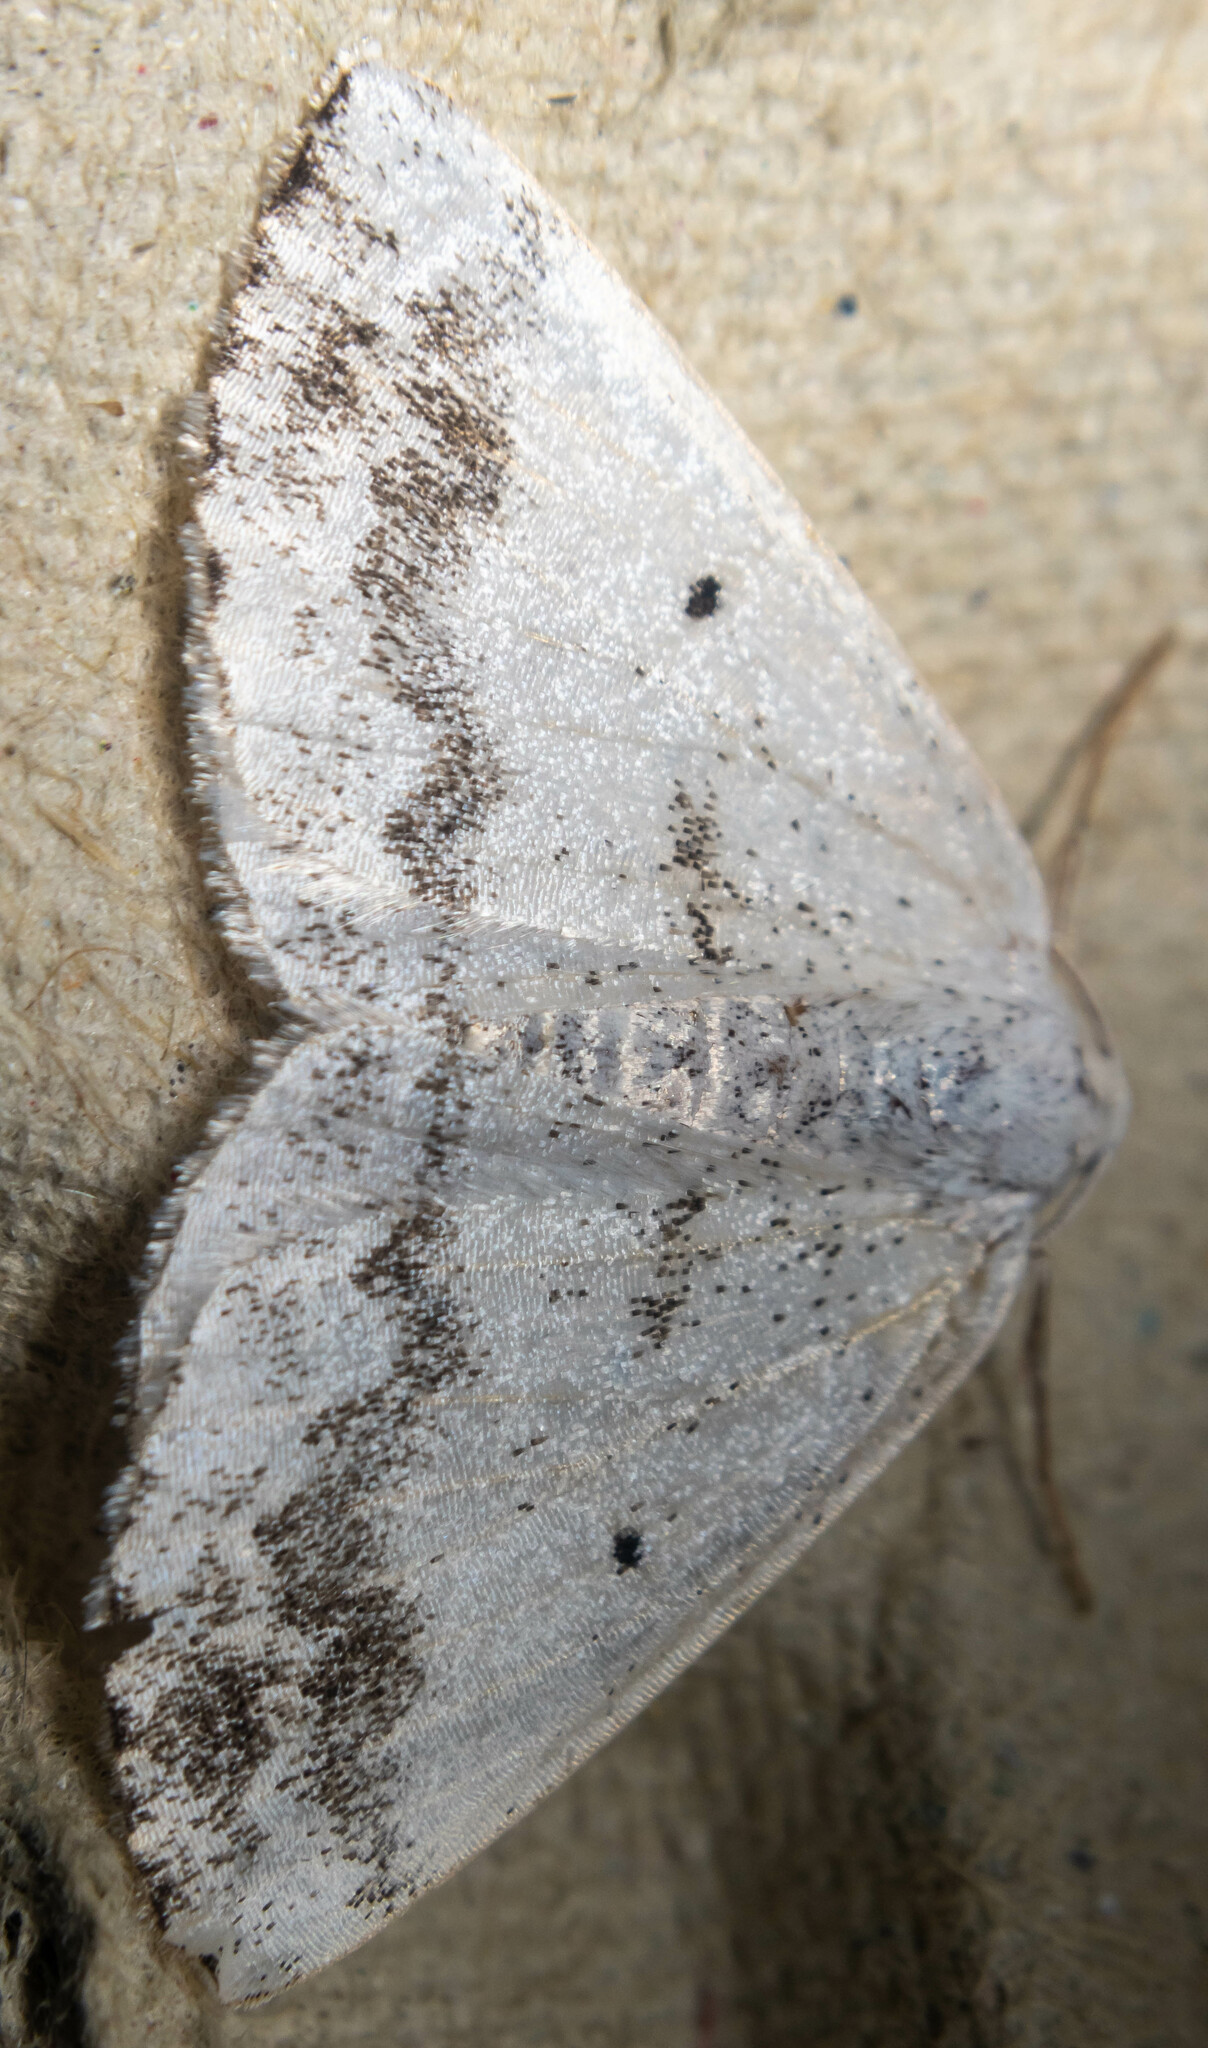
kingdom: Animalia
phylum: Arthropoda
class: Insecta
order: Lepidoptera
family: Geometridae
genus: Lomographa
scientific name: Lomographa temerata
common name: Clouded silver
